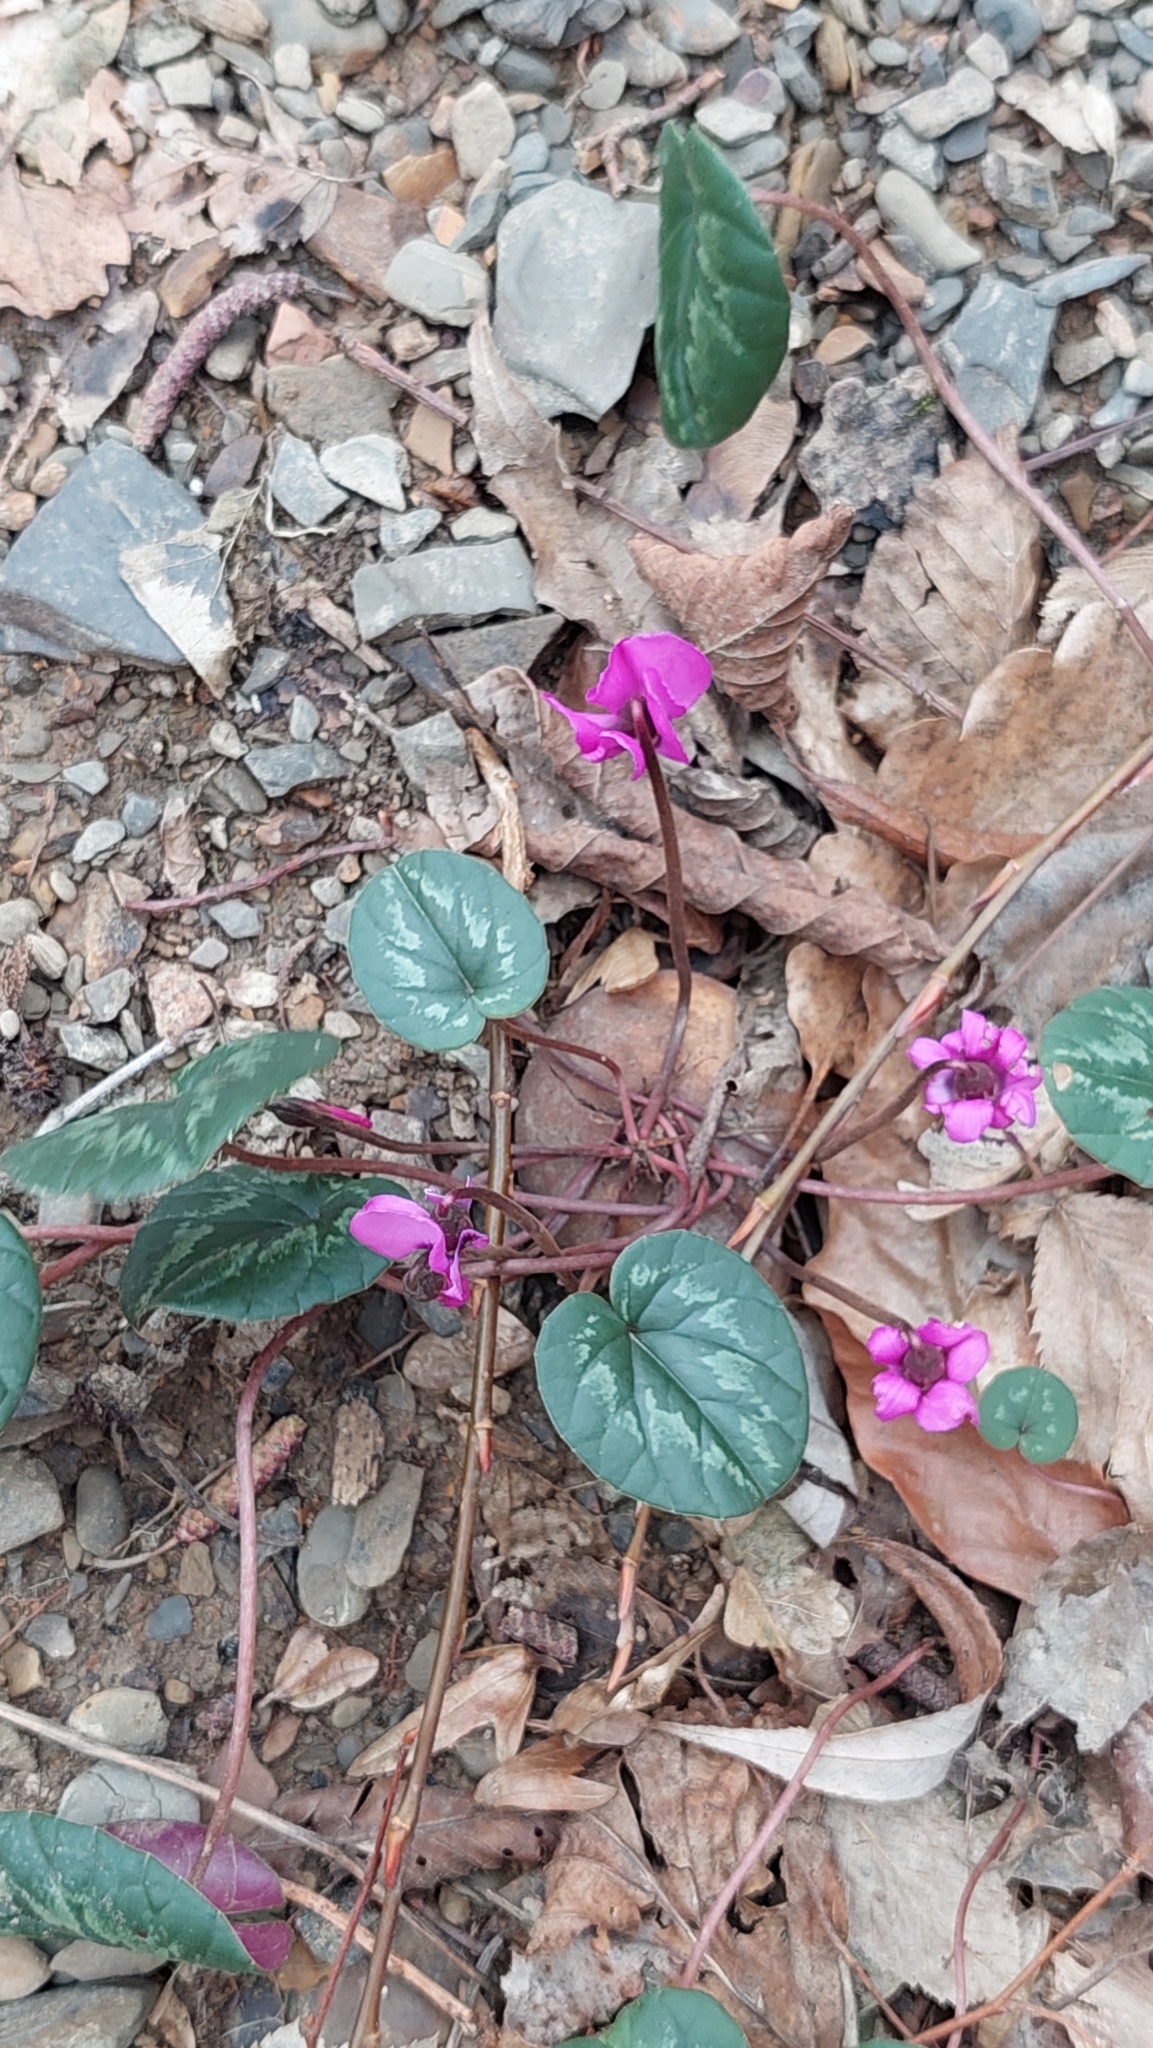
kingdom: Plantae
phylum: Tracheophyta
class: Magnoliopsida
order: Ericales
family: Primulaceae
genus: Cyclamen
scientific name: Cyclamen coum
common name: Eastern sowbread
